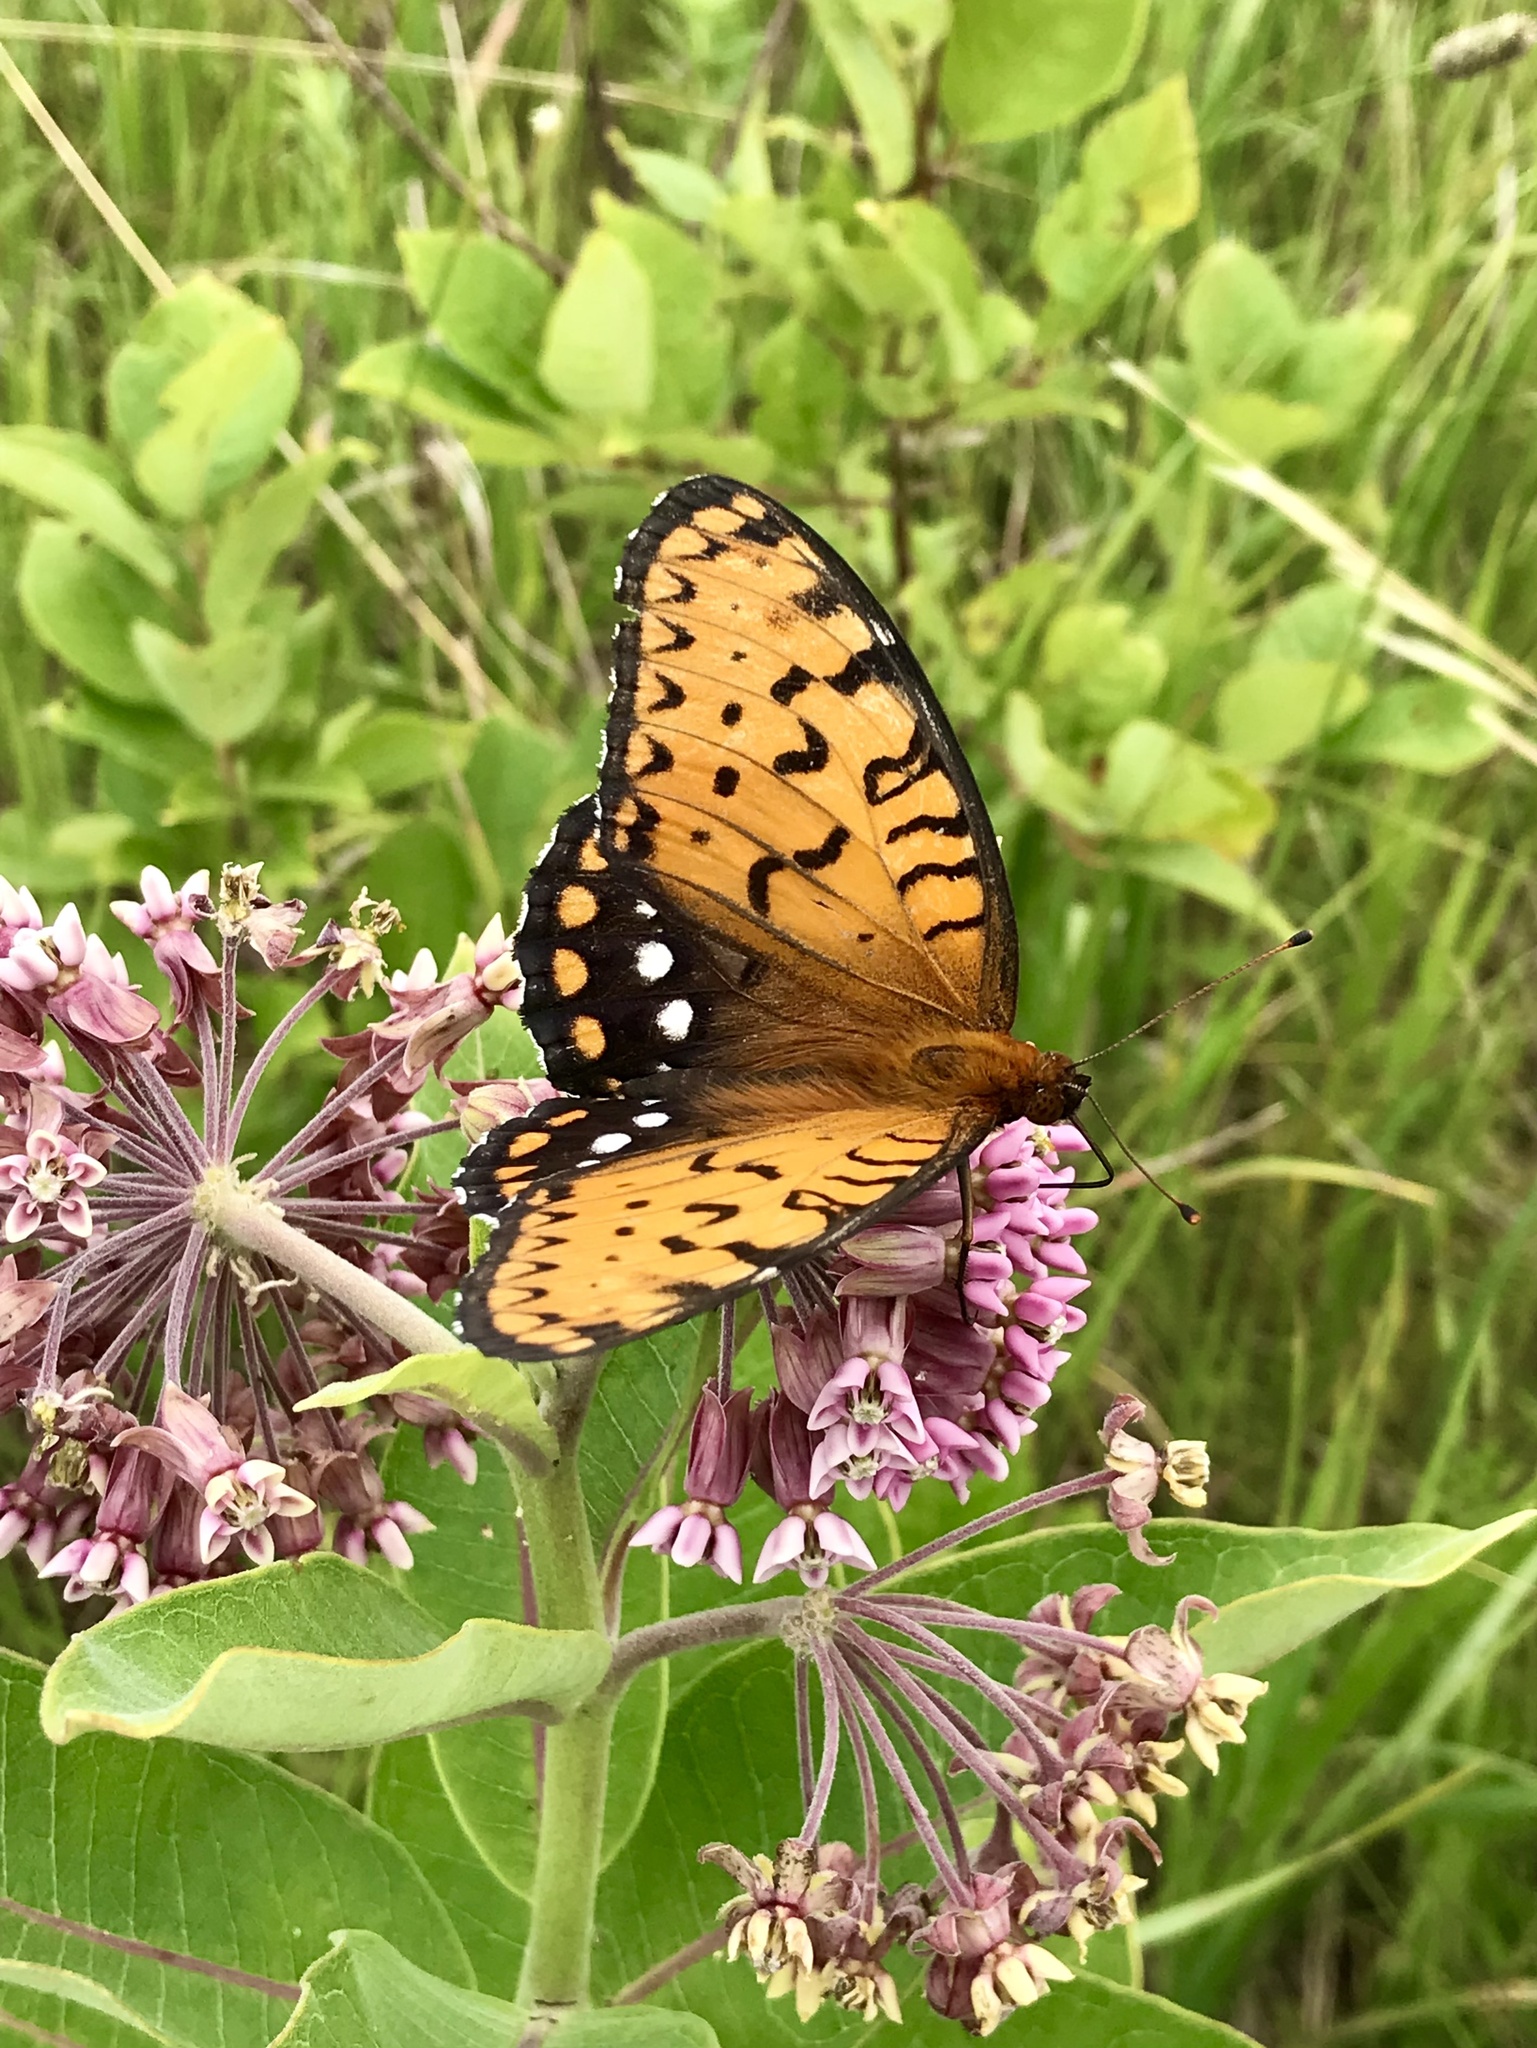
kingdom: Animalia
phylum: Arthropoda
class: Insecta
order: Lepidoptera
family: Nymphalidae
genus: Speyeria
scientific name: Speyeria idalia
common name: Regal fritillary
